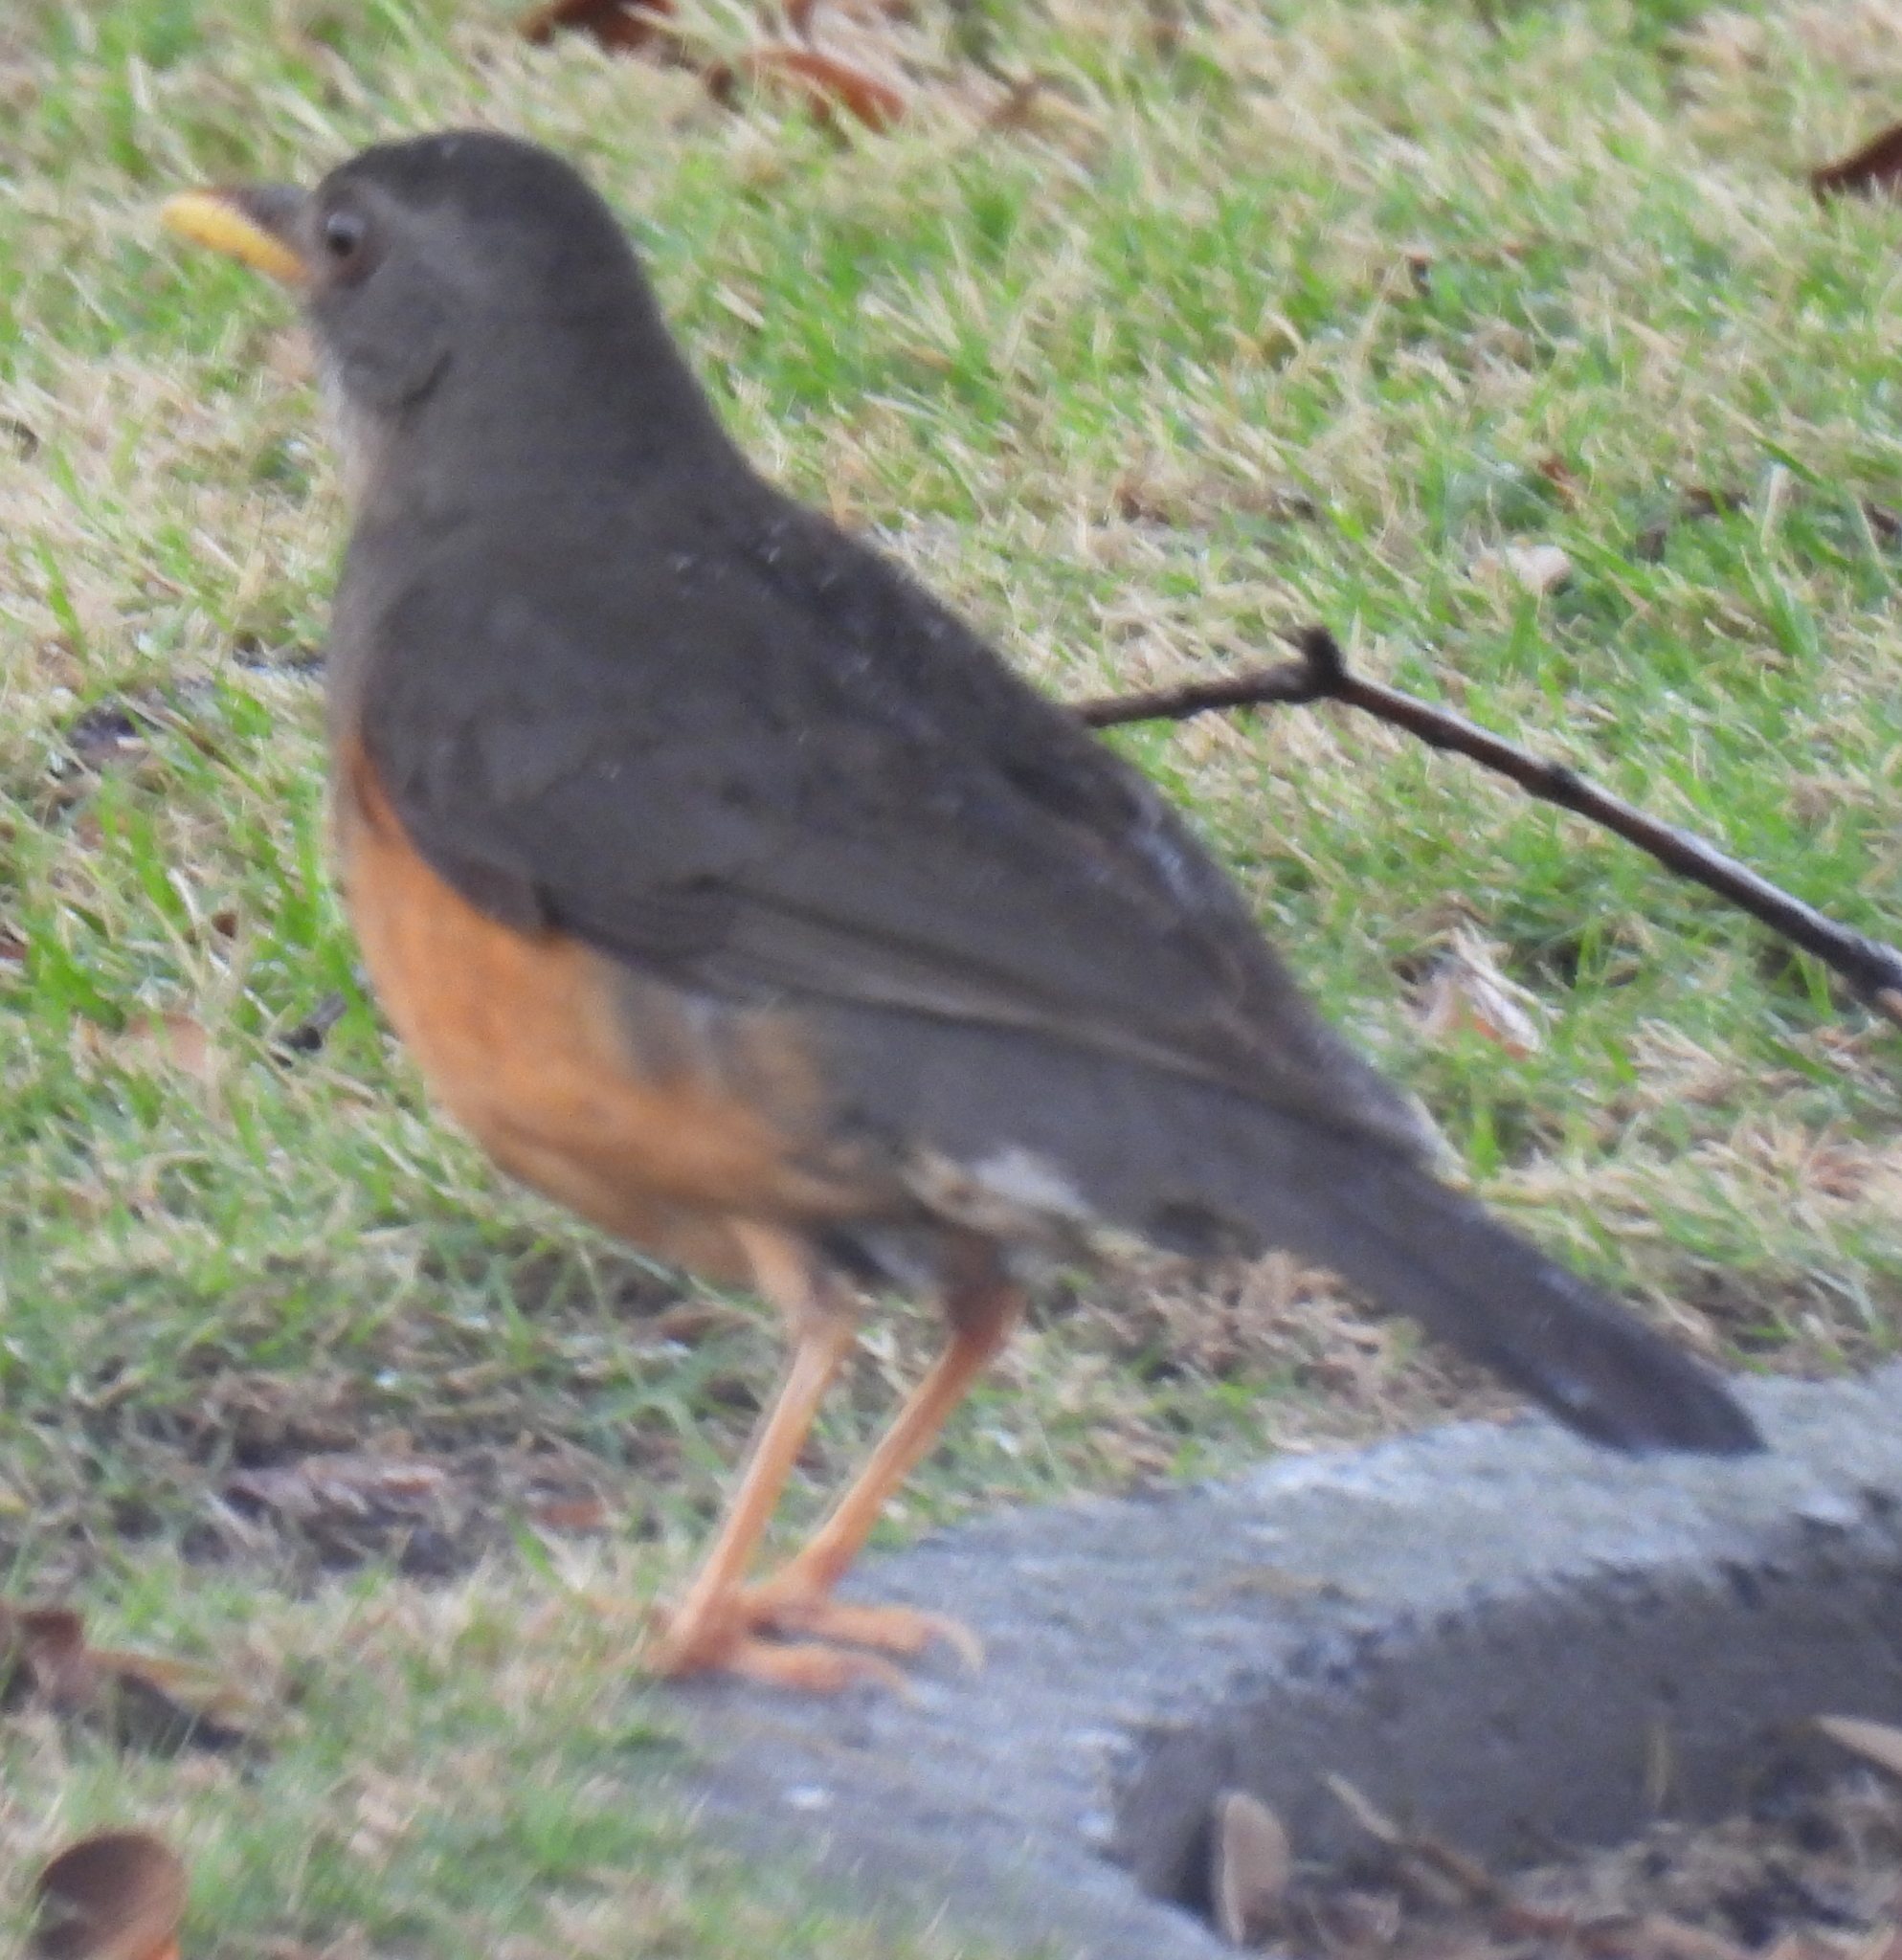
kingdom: Animalia
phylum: Chordata
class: Aves
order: Passeriformes
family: Turdidae
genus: Turdus
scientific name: Turdus olivaceus
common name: Olive thrush
